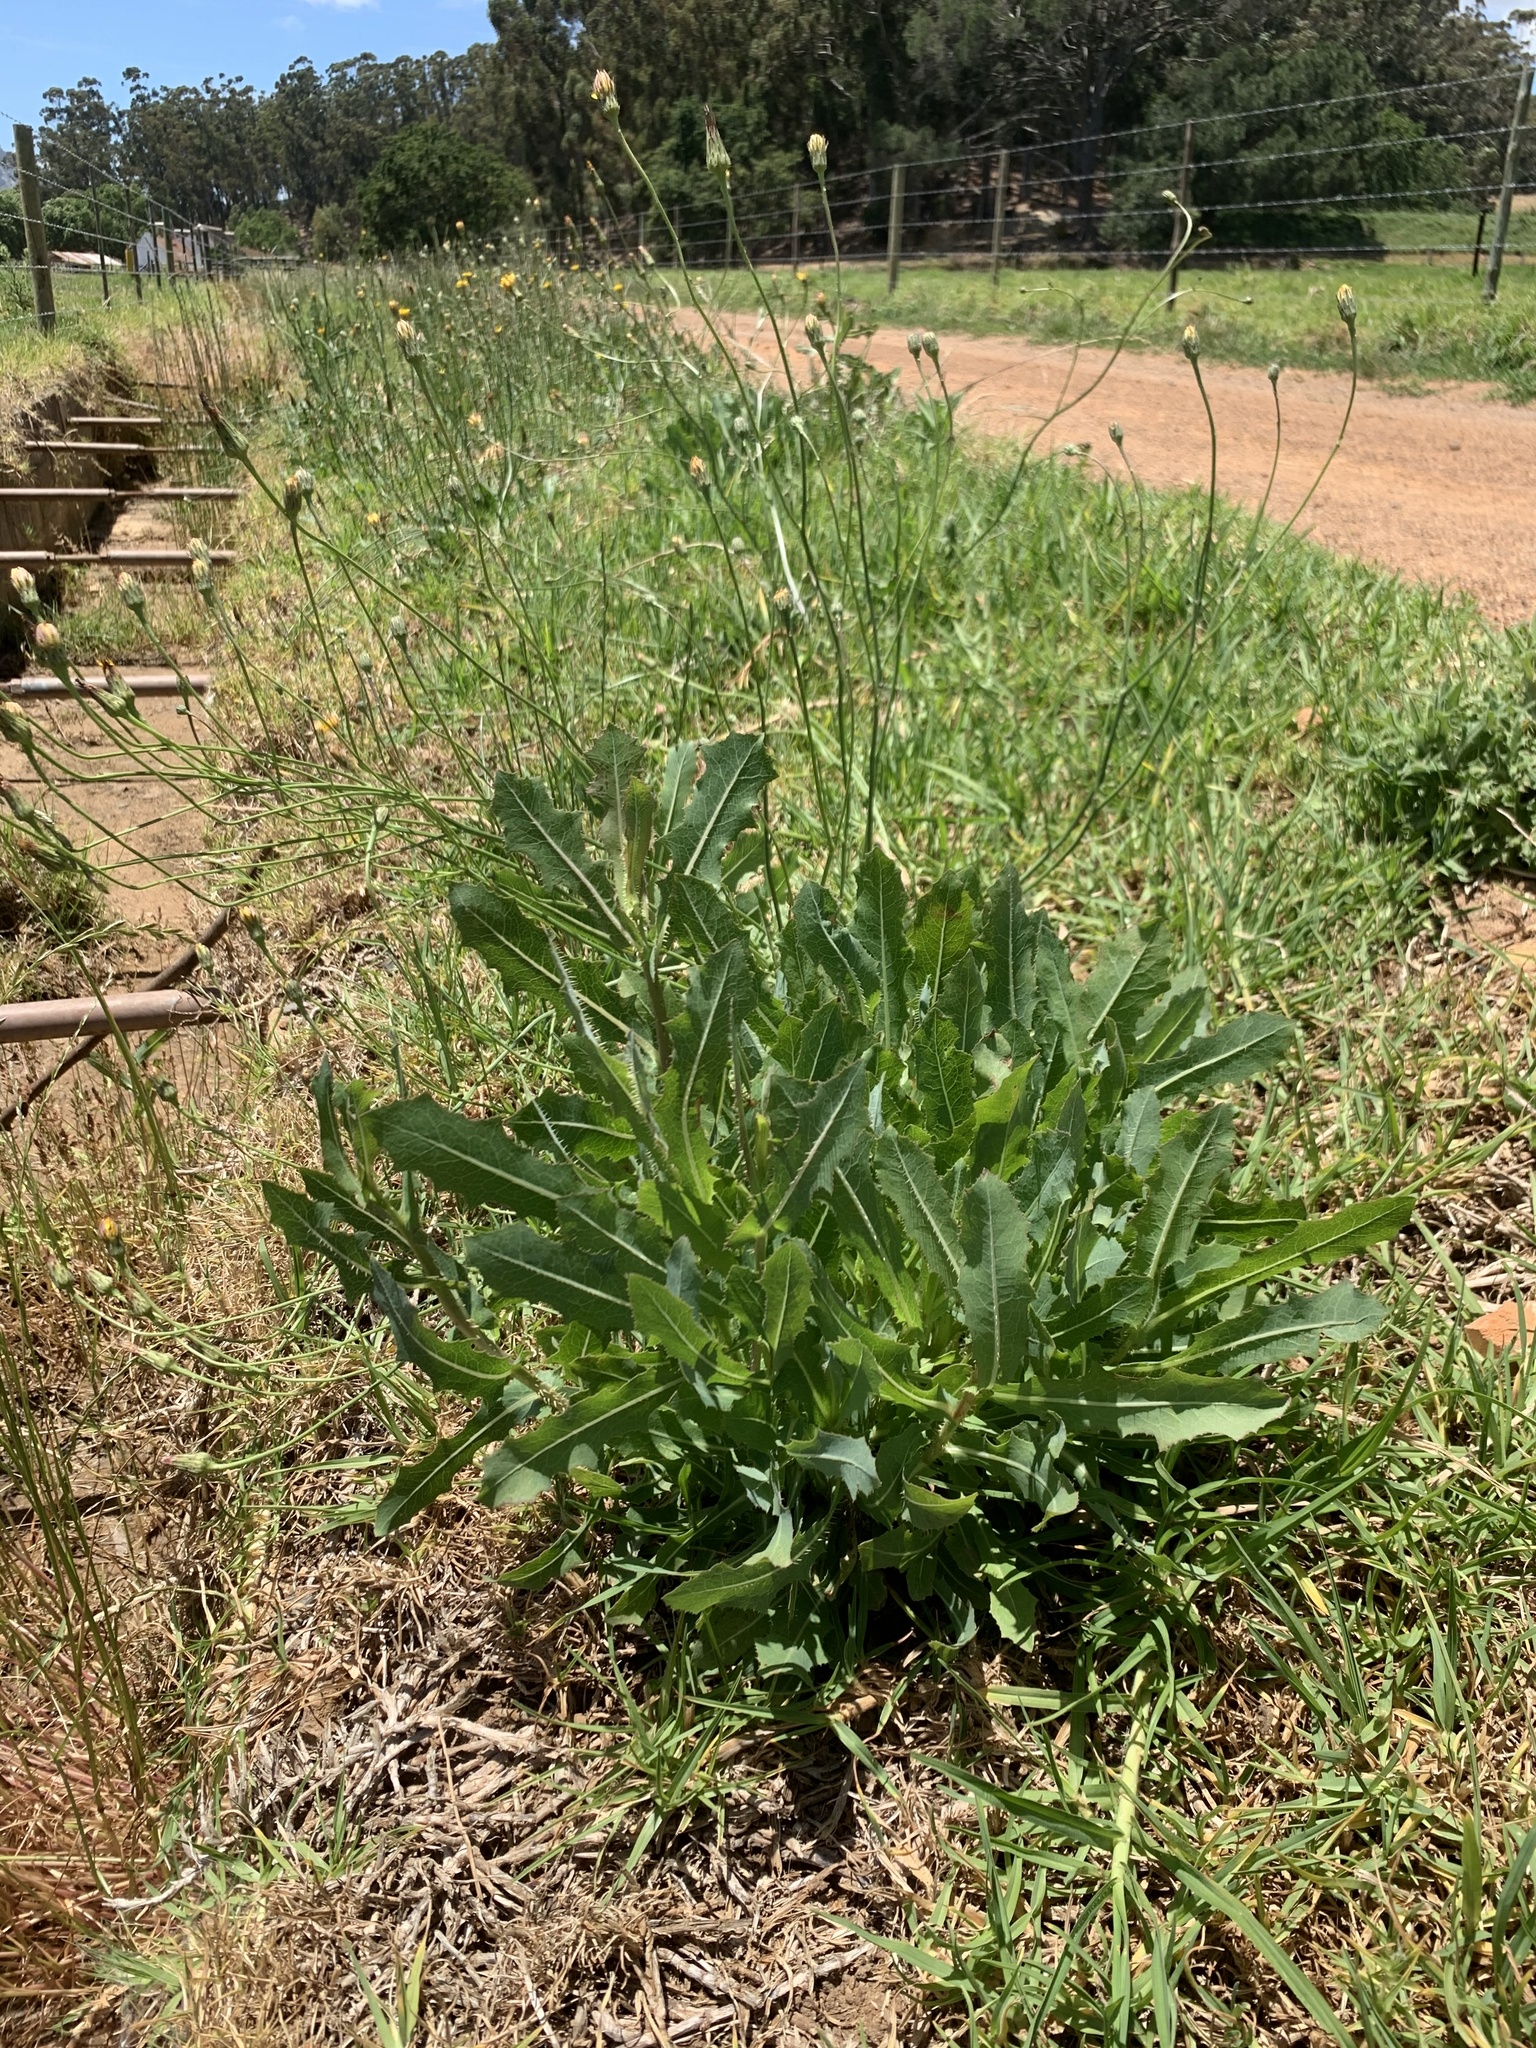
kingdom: Plantae
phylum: Tracheophyta
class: Magnoliopsida
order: Asterales
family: Asteraceae
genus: Lactuca
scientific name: Lactuca serriola
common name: Prickly lettuce
